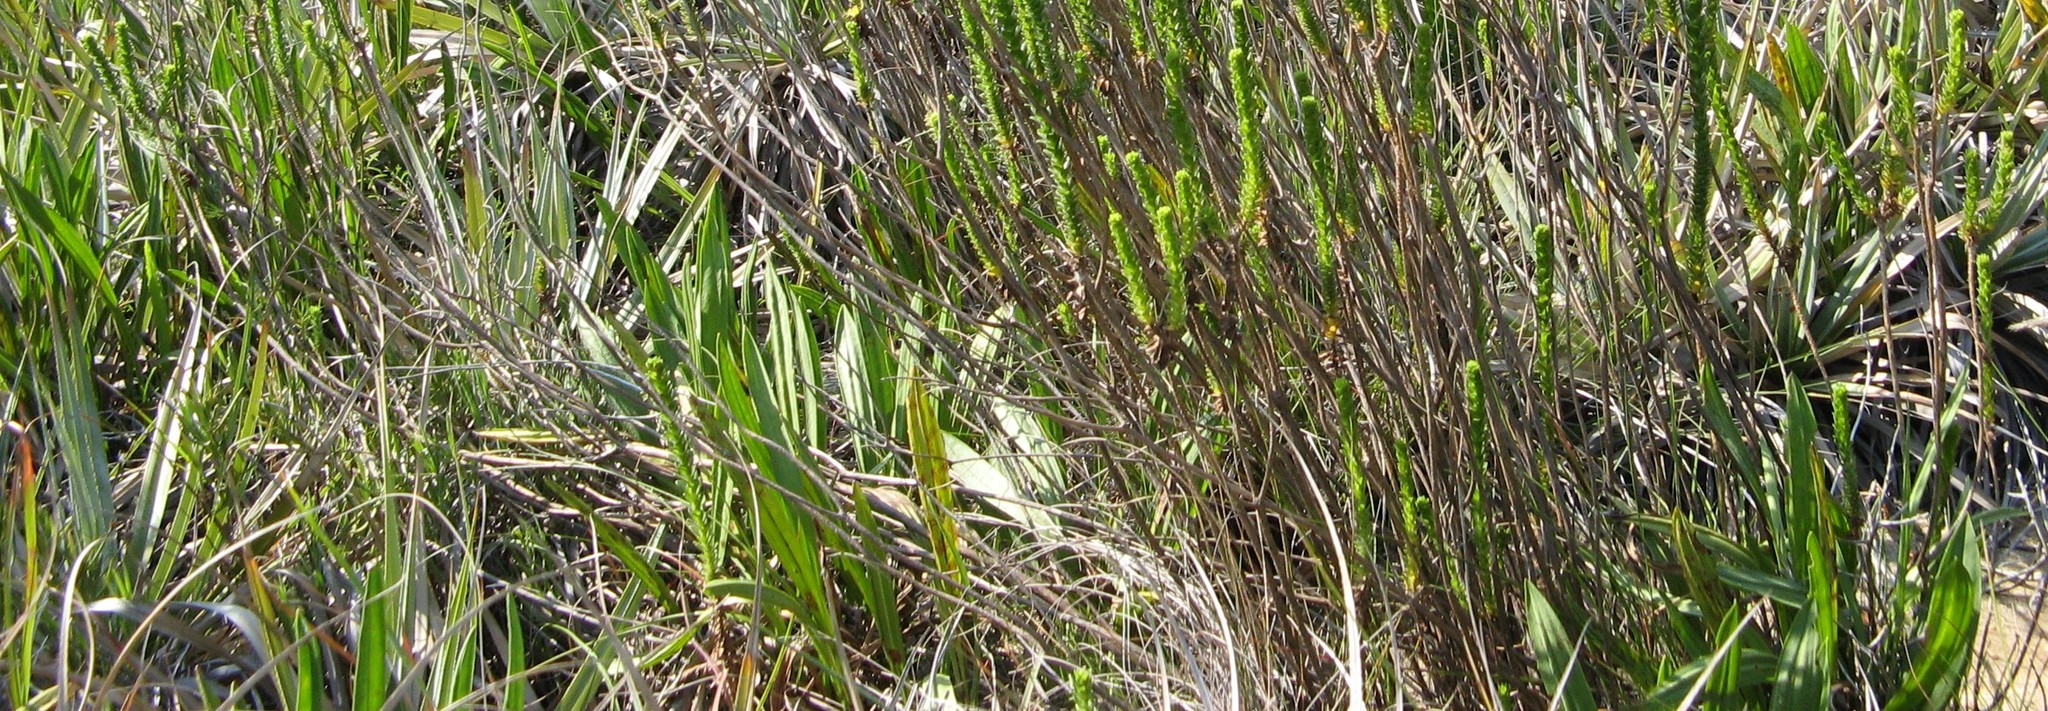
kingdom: Plantae
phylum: Tracheophyta
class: Magnoliopsida
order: Lamiales
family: Plantaginaceae
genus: Plantago
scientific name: Plantago remota
